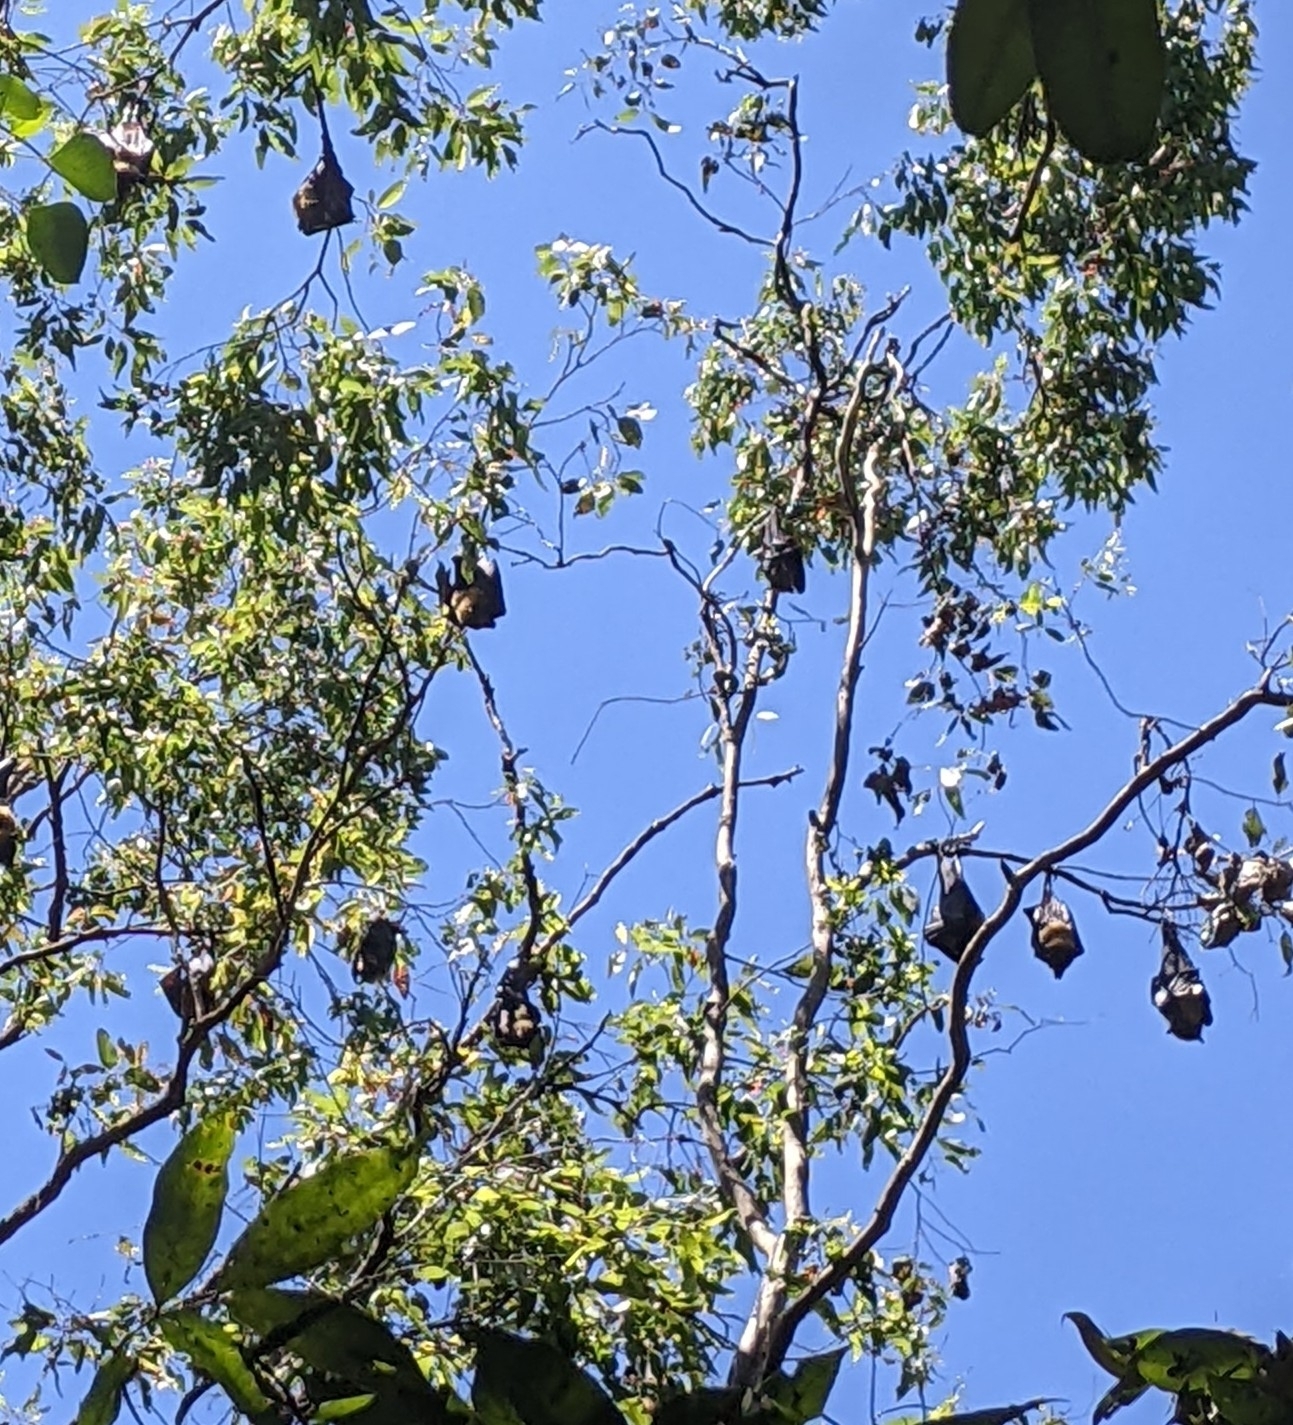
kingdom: Animalia
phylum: Chordata
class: Mammalia
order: Chiroptera
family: Pteropodidae
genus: Pteropus
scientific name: Pteropus conspicillatus
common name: Spectacled flying fox
